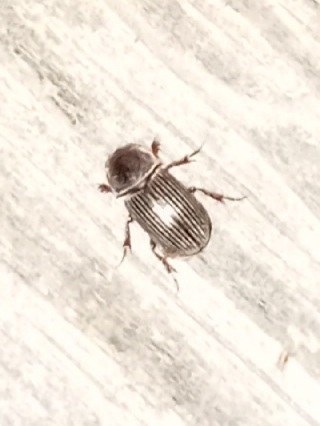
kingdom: Animalia
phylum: Arthropoda
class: Insecta
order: Coleoptera
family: Scarabaeidae
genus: Martineziana
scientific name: Martineziana dutertrei
